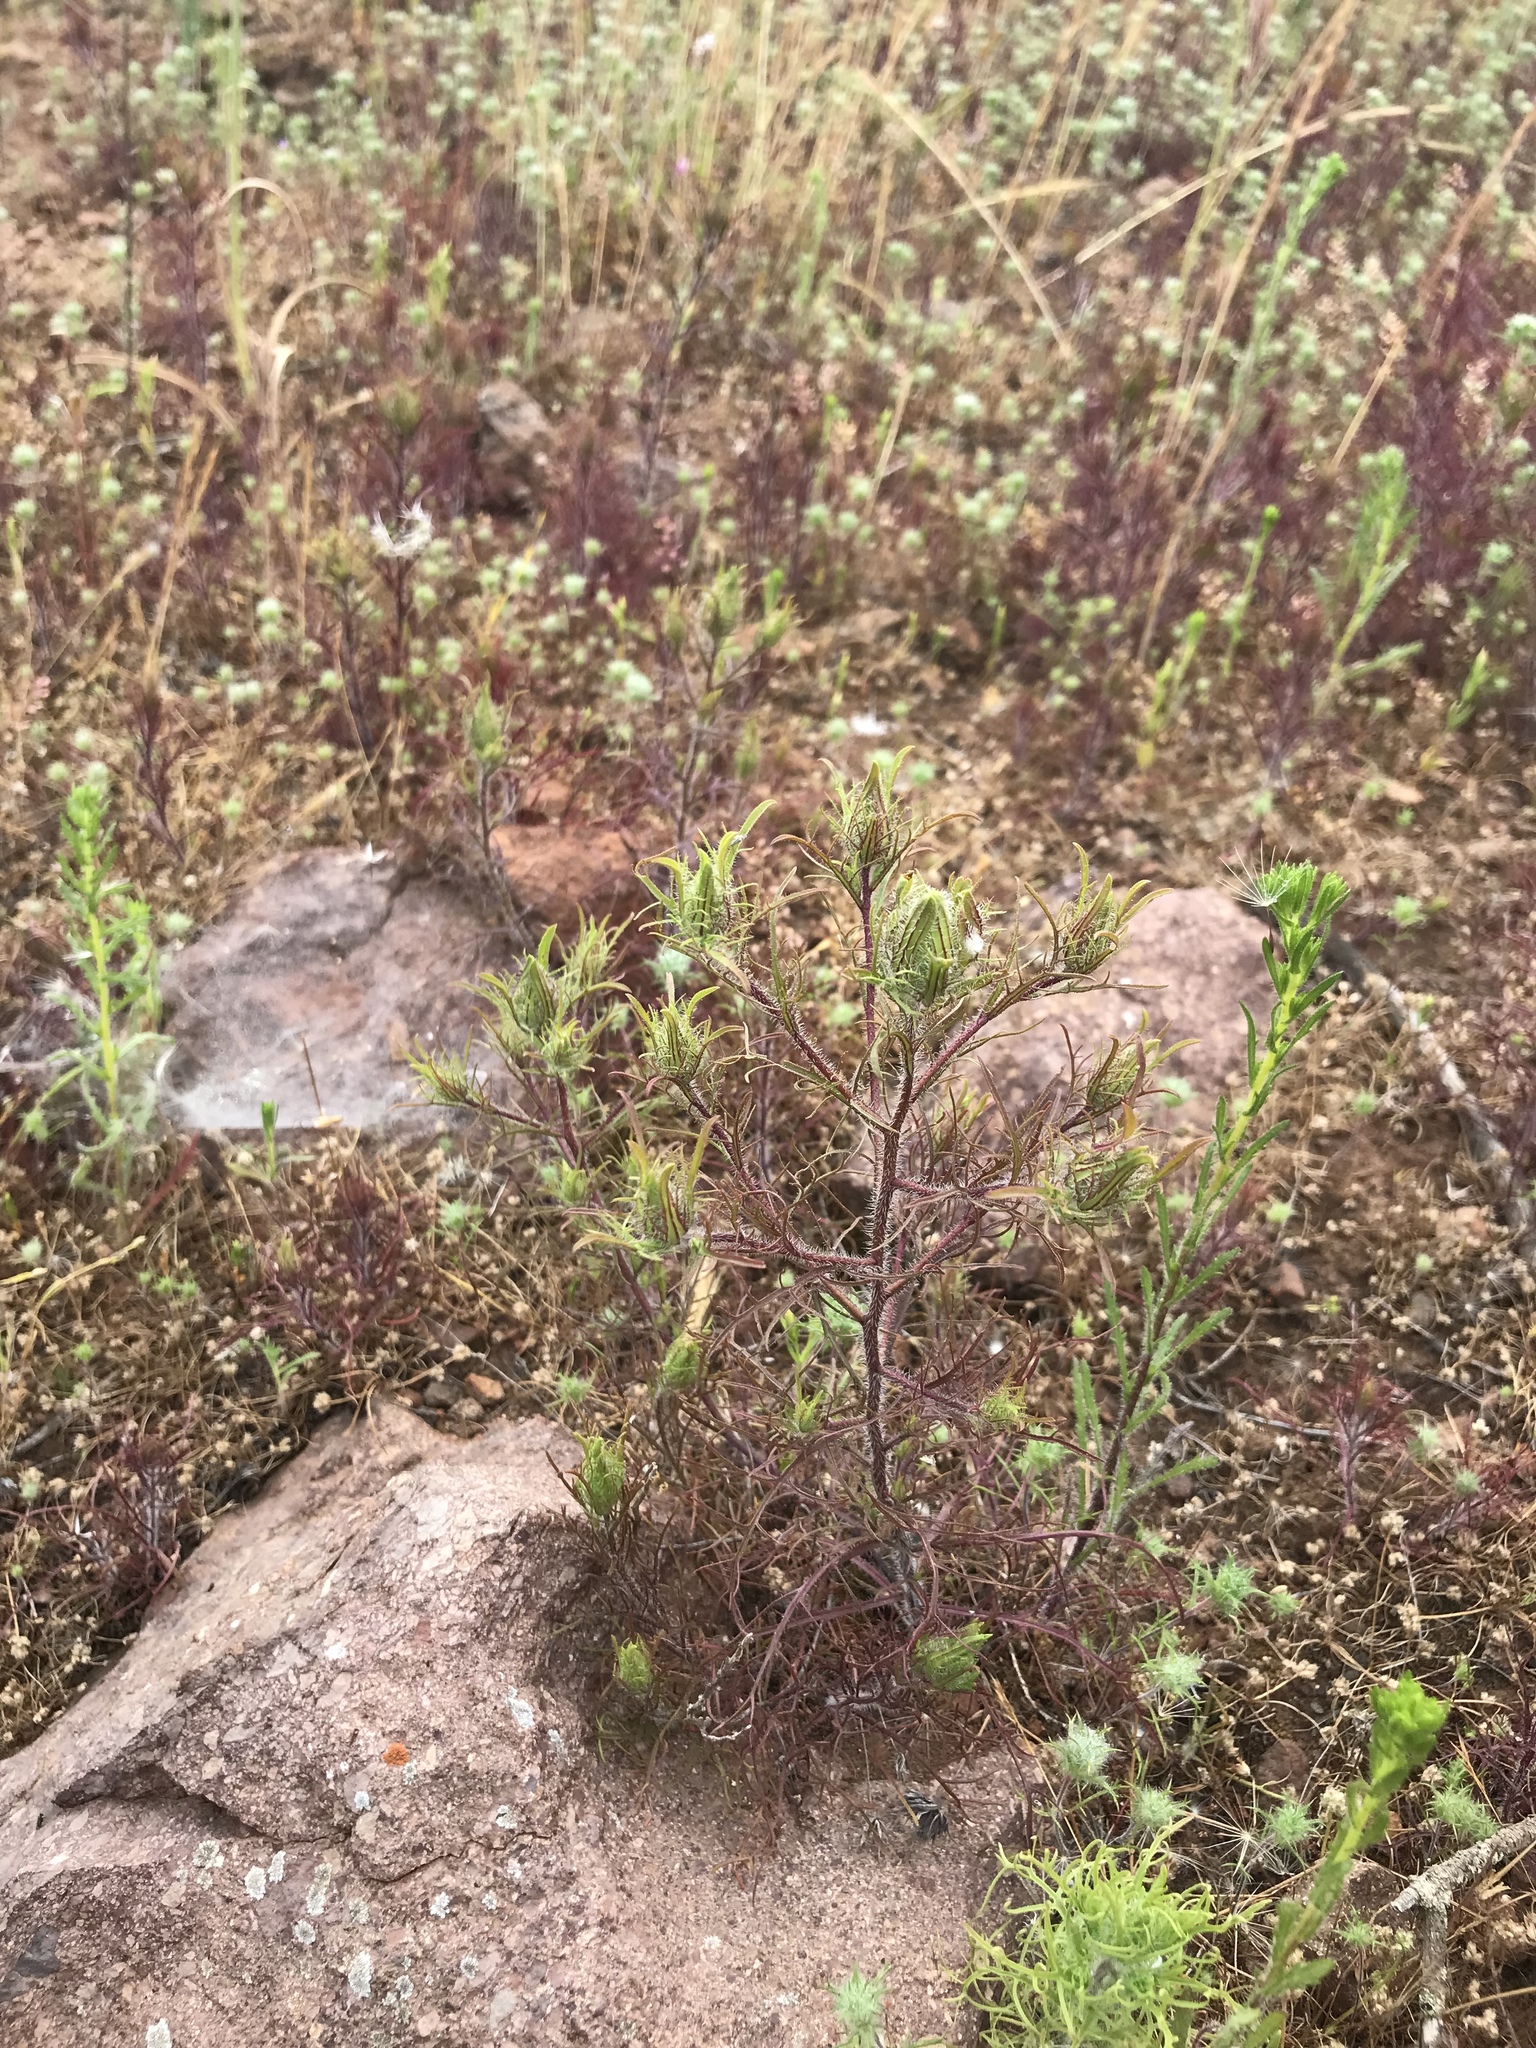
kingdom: Plantae
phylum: Tracheophyta
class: Magnoliopsida
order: Lamiales
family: Orobanchaceae
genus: Dicranostegia
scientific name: Dicranostegia orcuttiana
